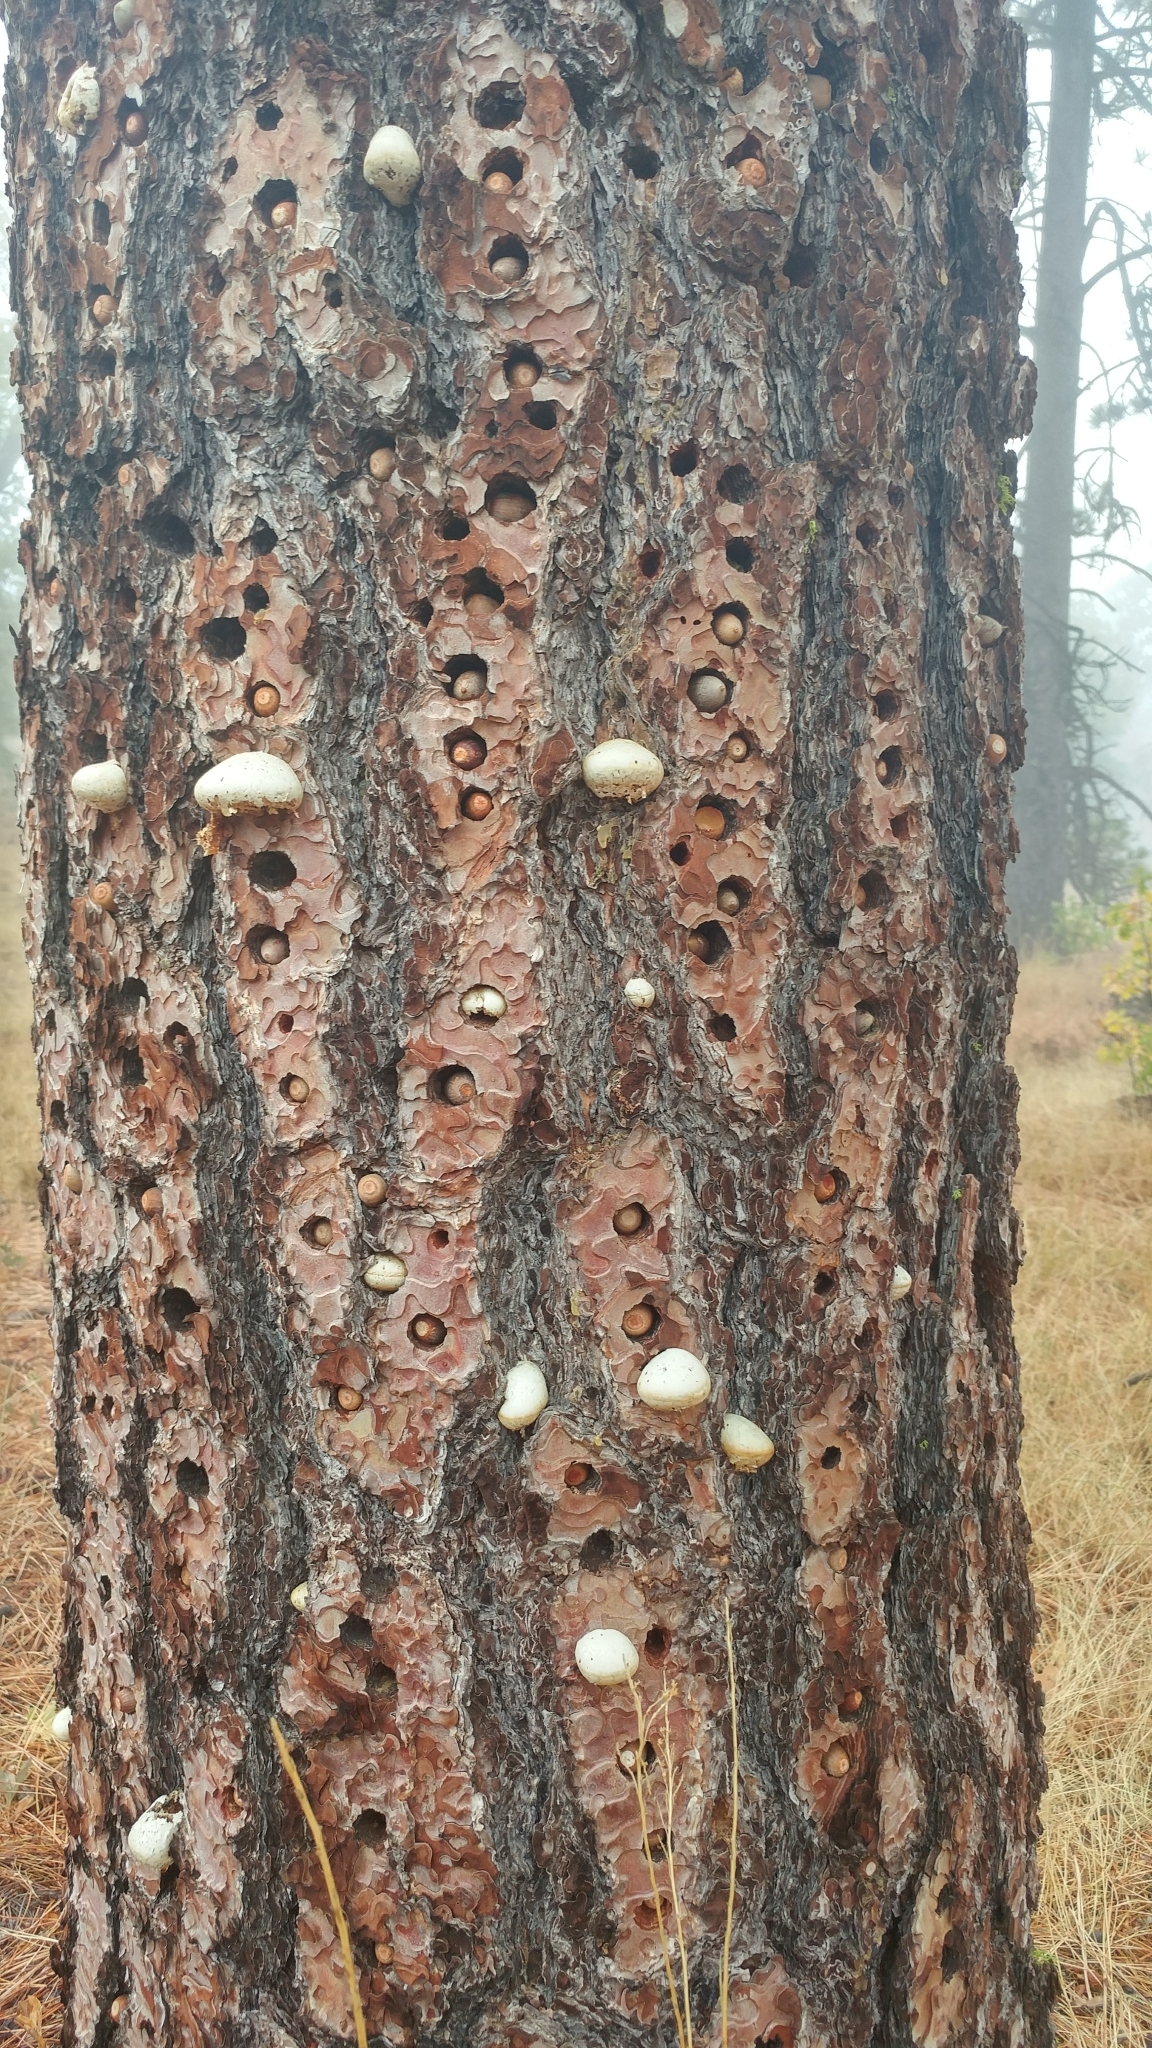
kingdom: Fungi
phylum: Basidiomycota
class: Agaricomycetes
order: Polyporales
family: Polyporaceae
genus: Cryptoporus
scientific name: Cryptoporus volvatus
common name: Veiled polypore
